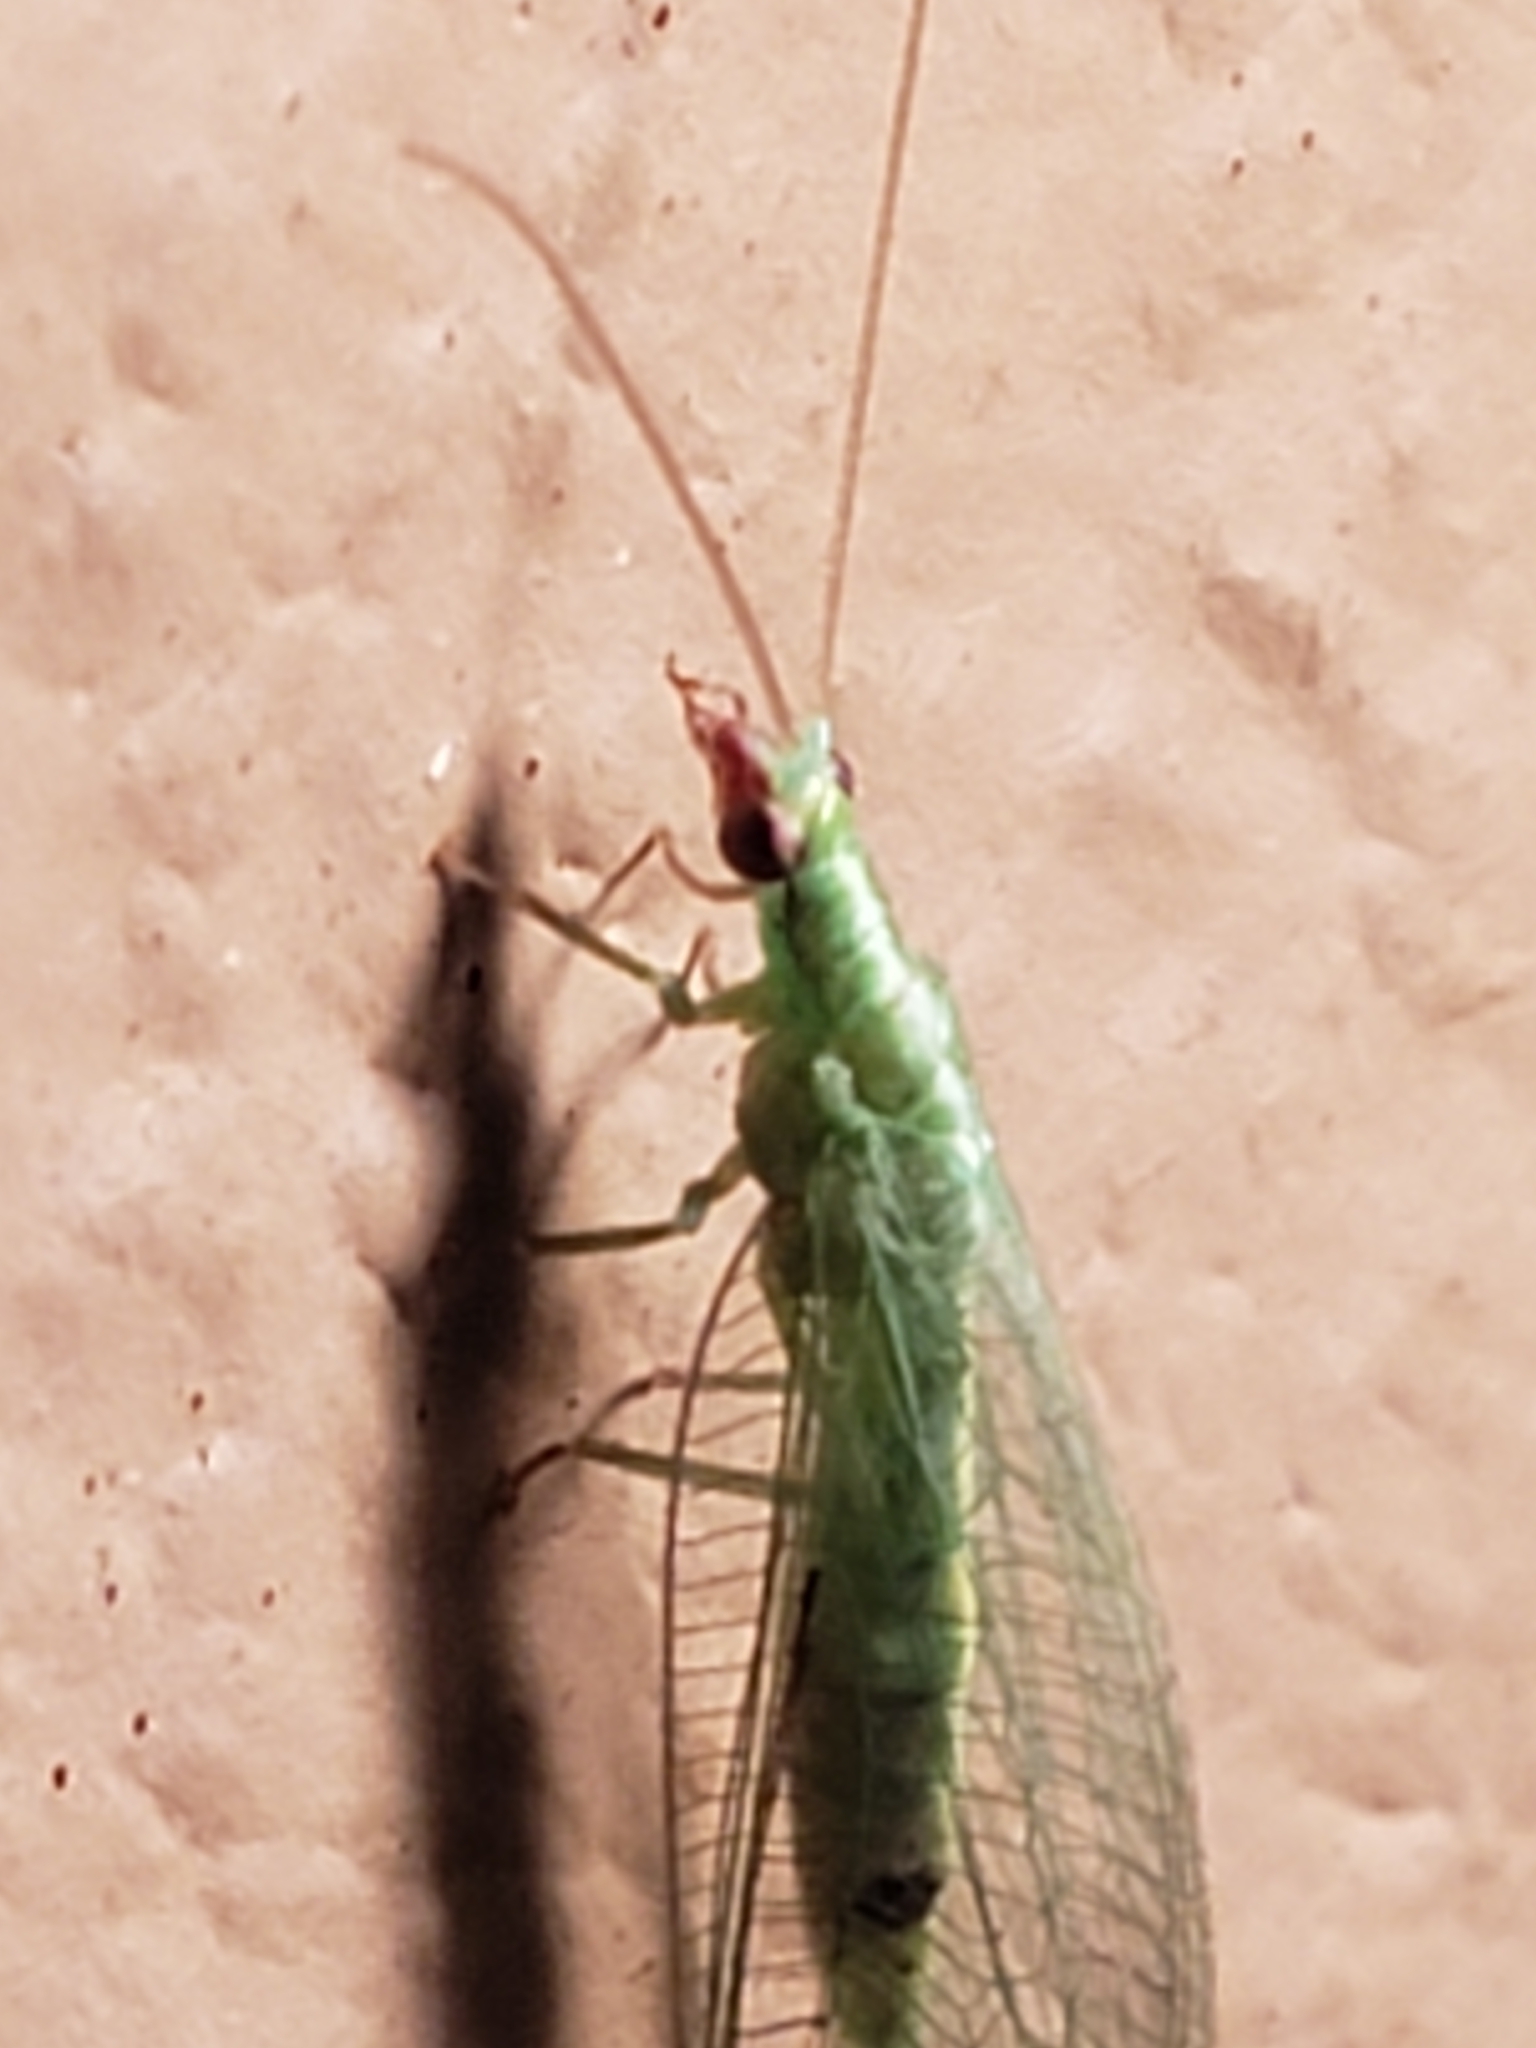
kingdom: Animalia
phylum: Arthropoda
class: Insecta
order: Neuroptera
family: Chrysopidae
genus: Chrysoperla
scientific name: Chrysoperla rufilabris
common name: Red-lipped green lacewing
